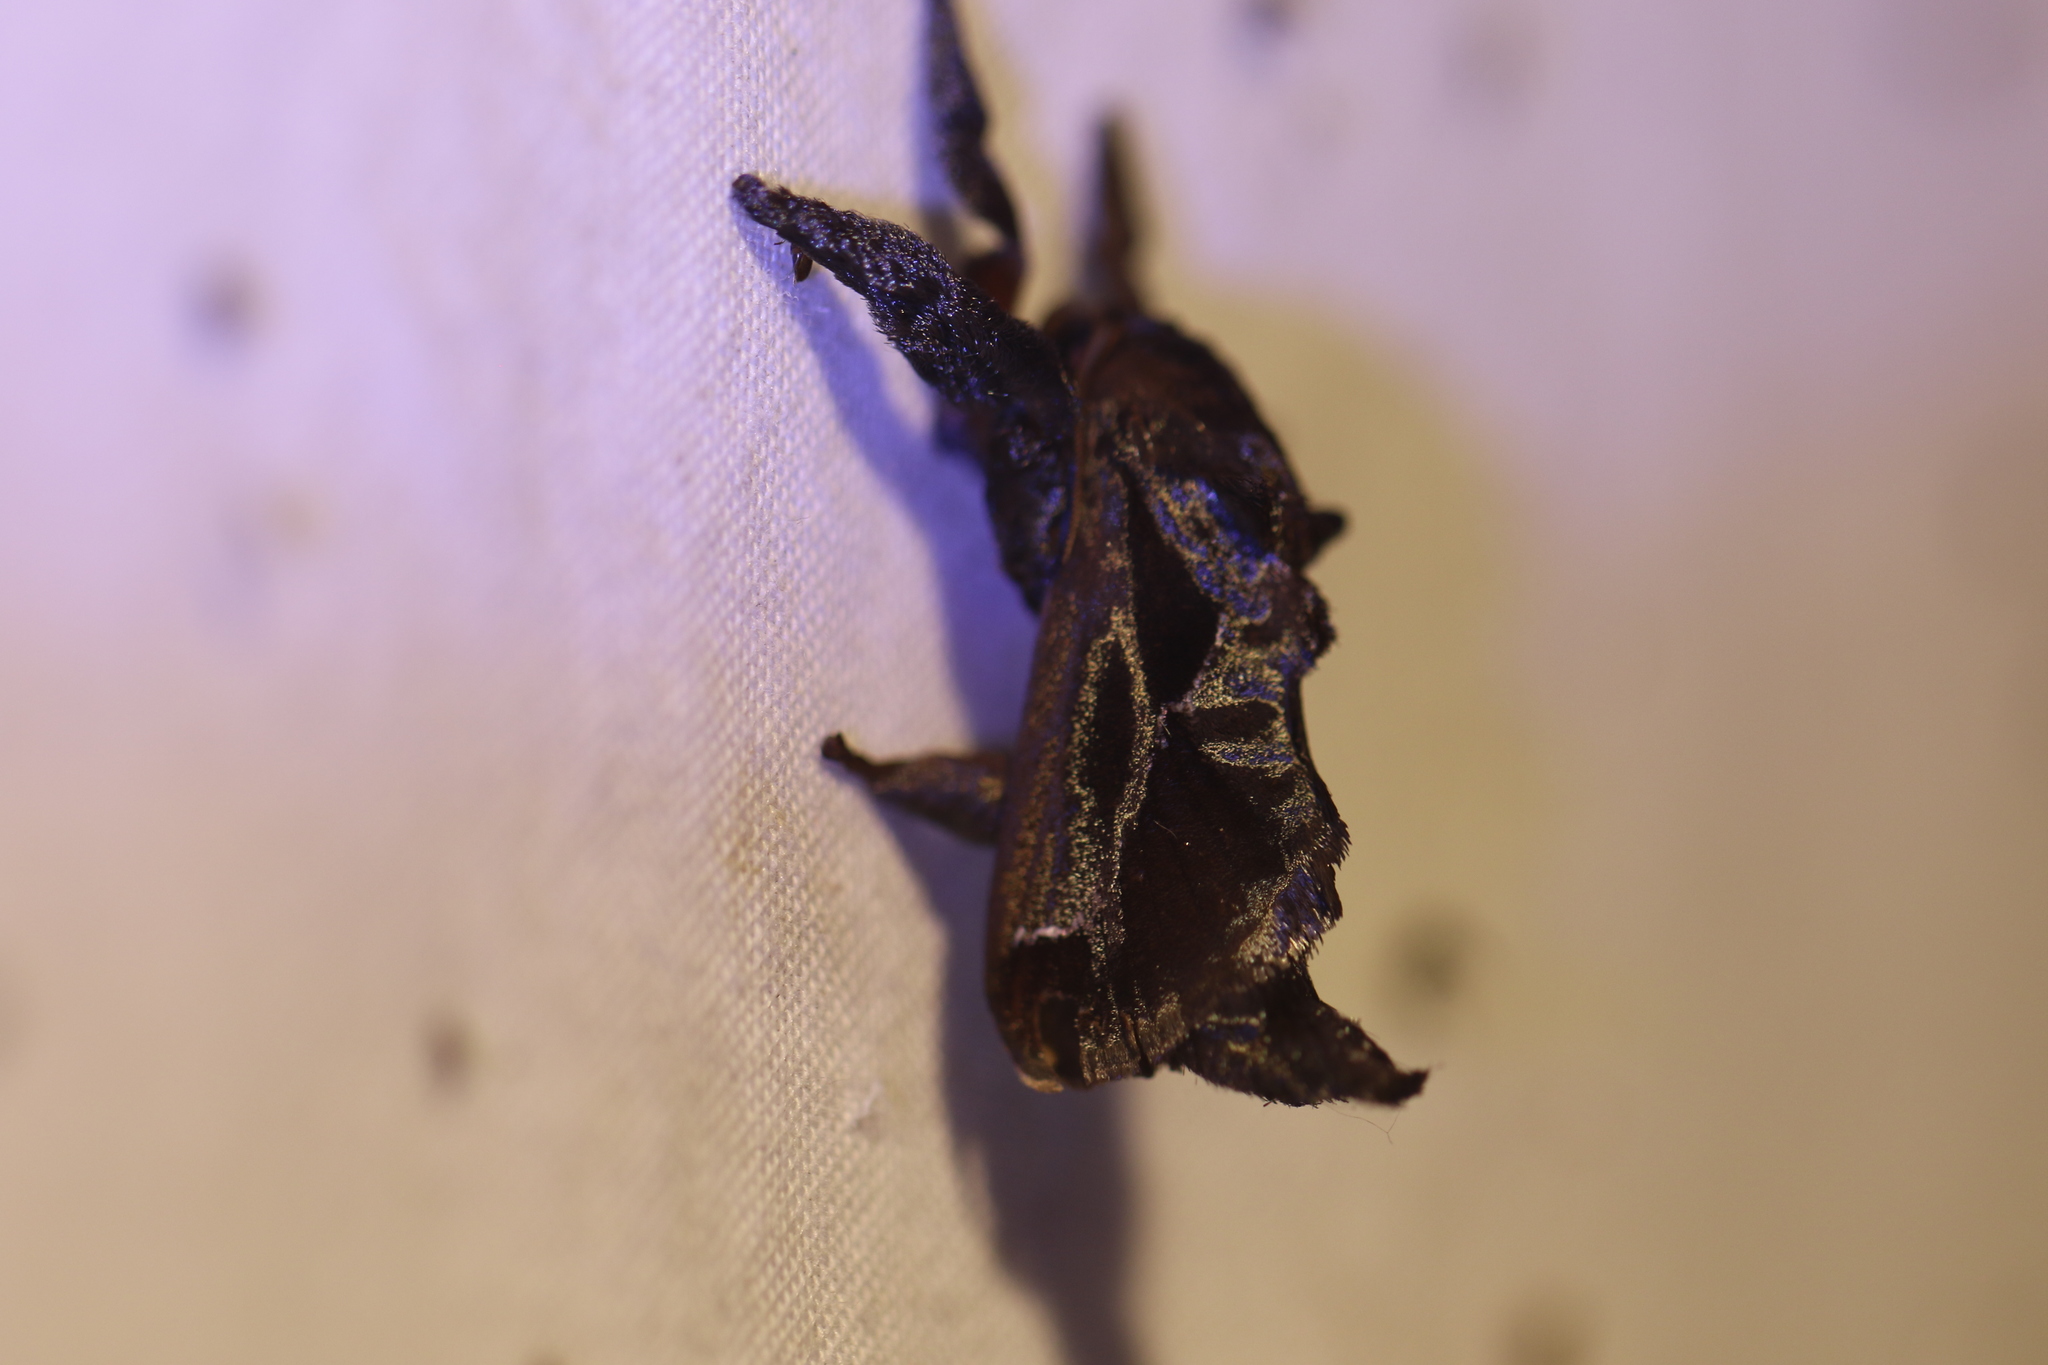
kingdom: Animalia
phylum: Arthropoda
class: Insecta
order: Lepidoptera
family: Limacodidae
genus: Sibine
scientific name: Sibine nesea
